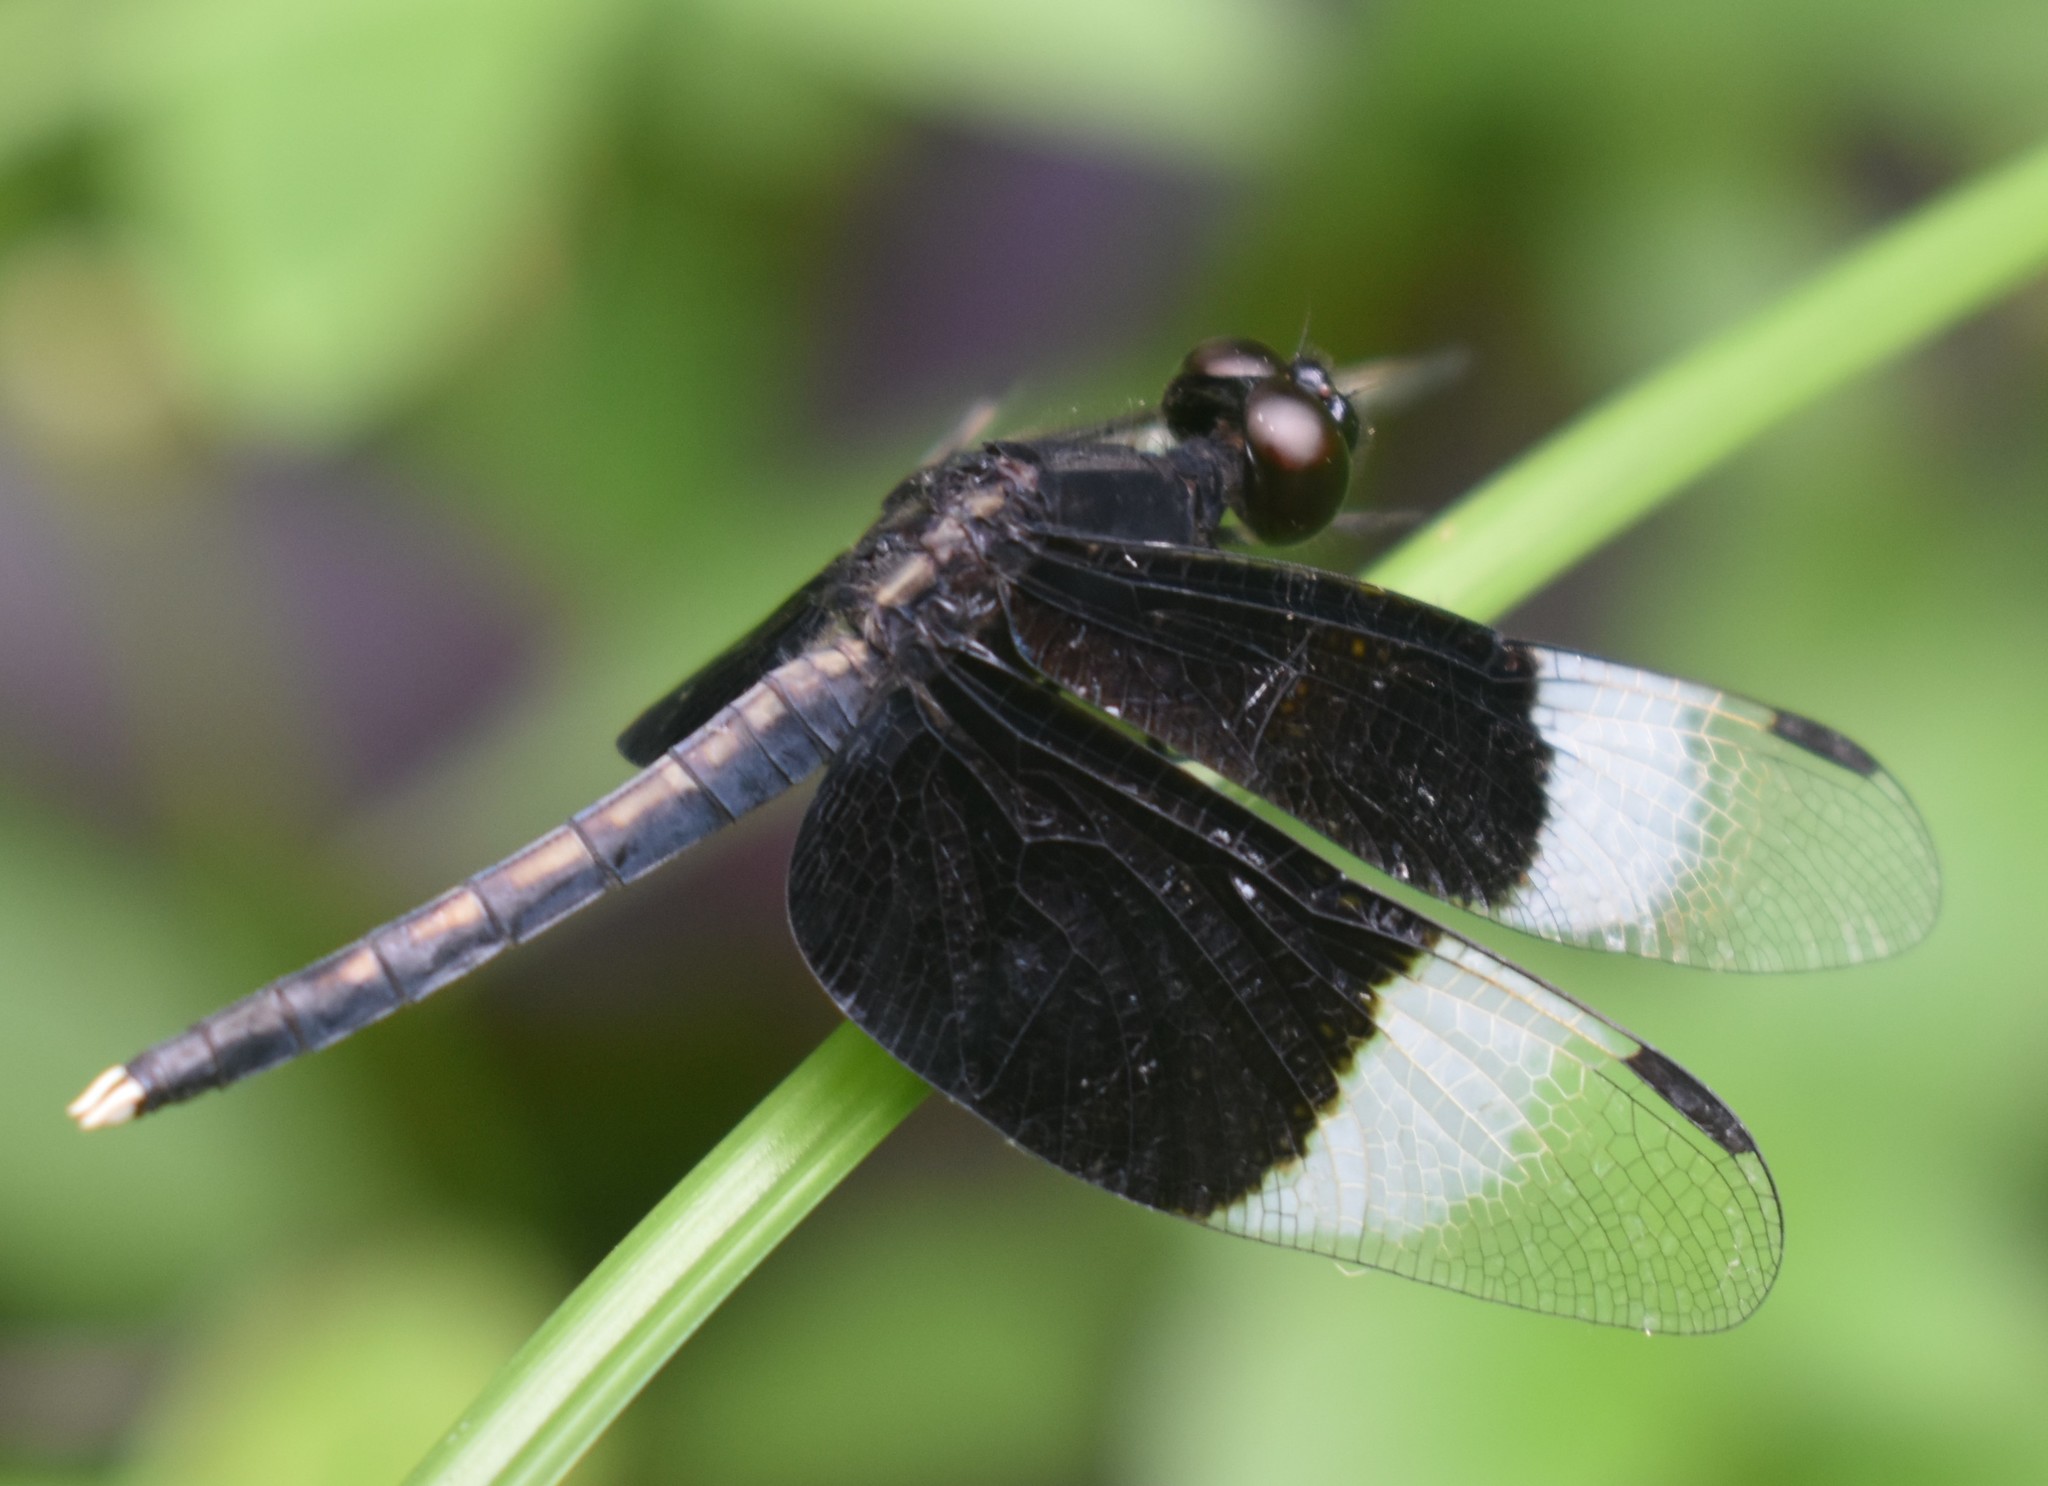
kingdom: Animalia
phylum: Arthropoda
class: Insecta
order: Odonata
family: Libellulidae
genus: Neurothemis
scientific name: Neurothemis tullia
